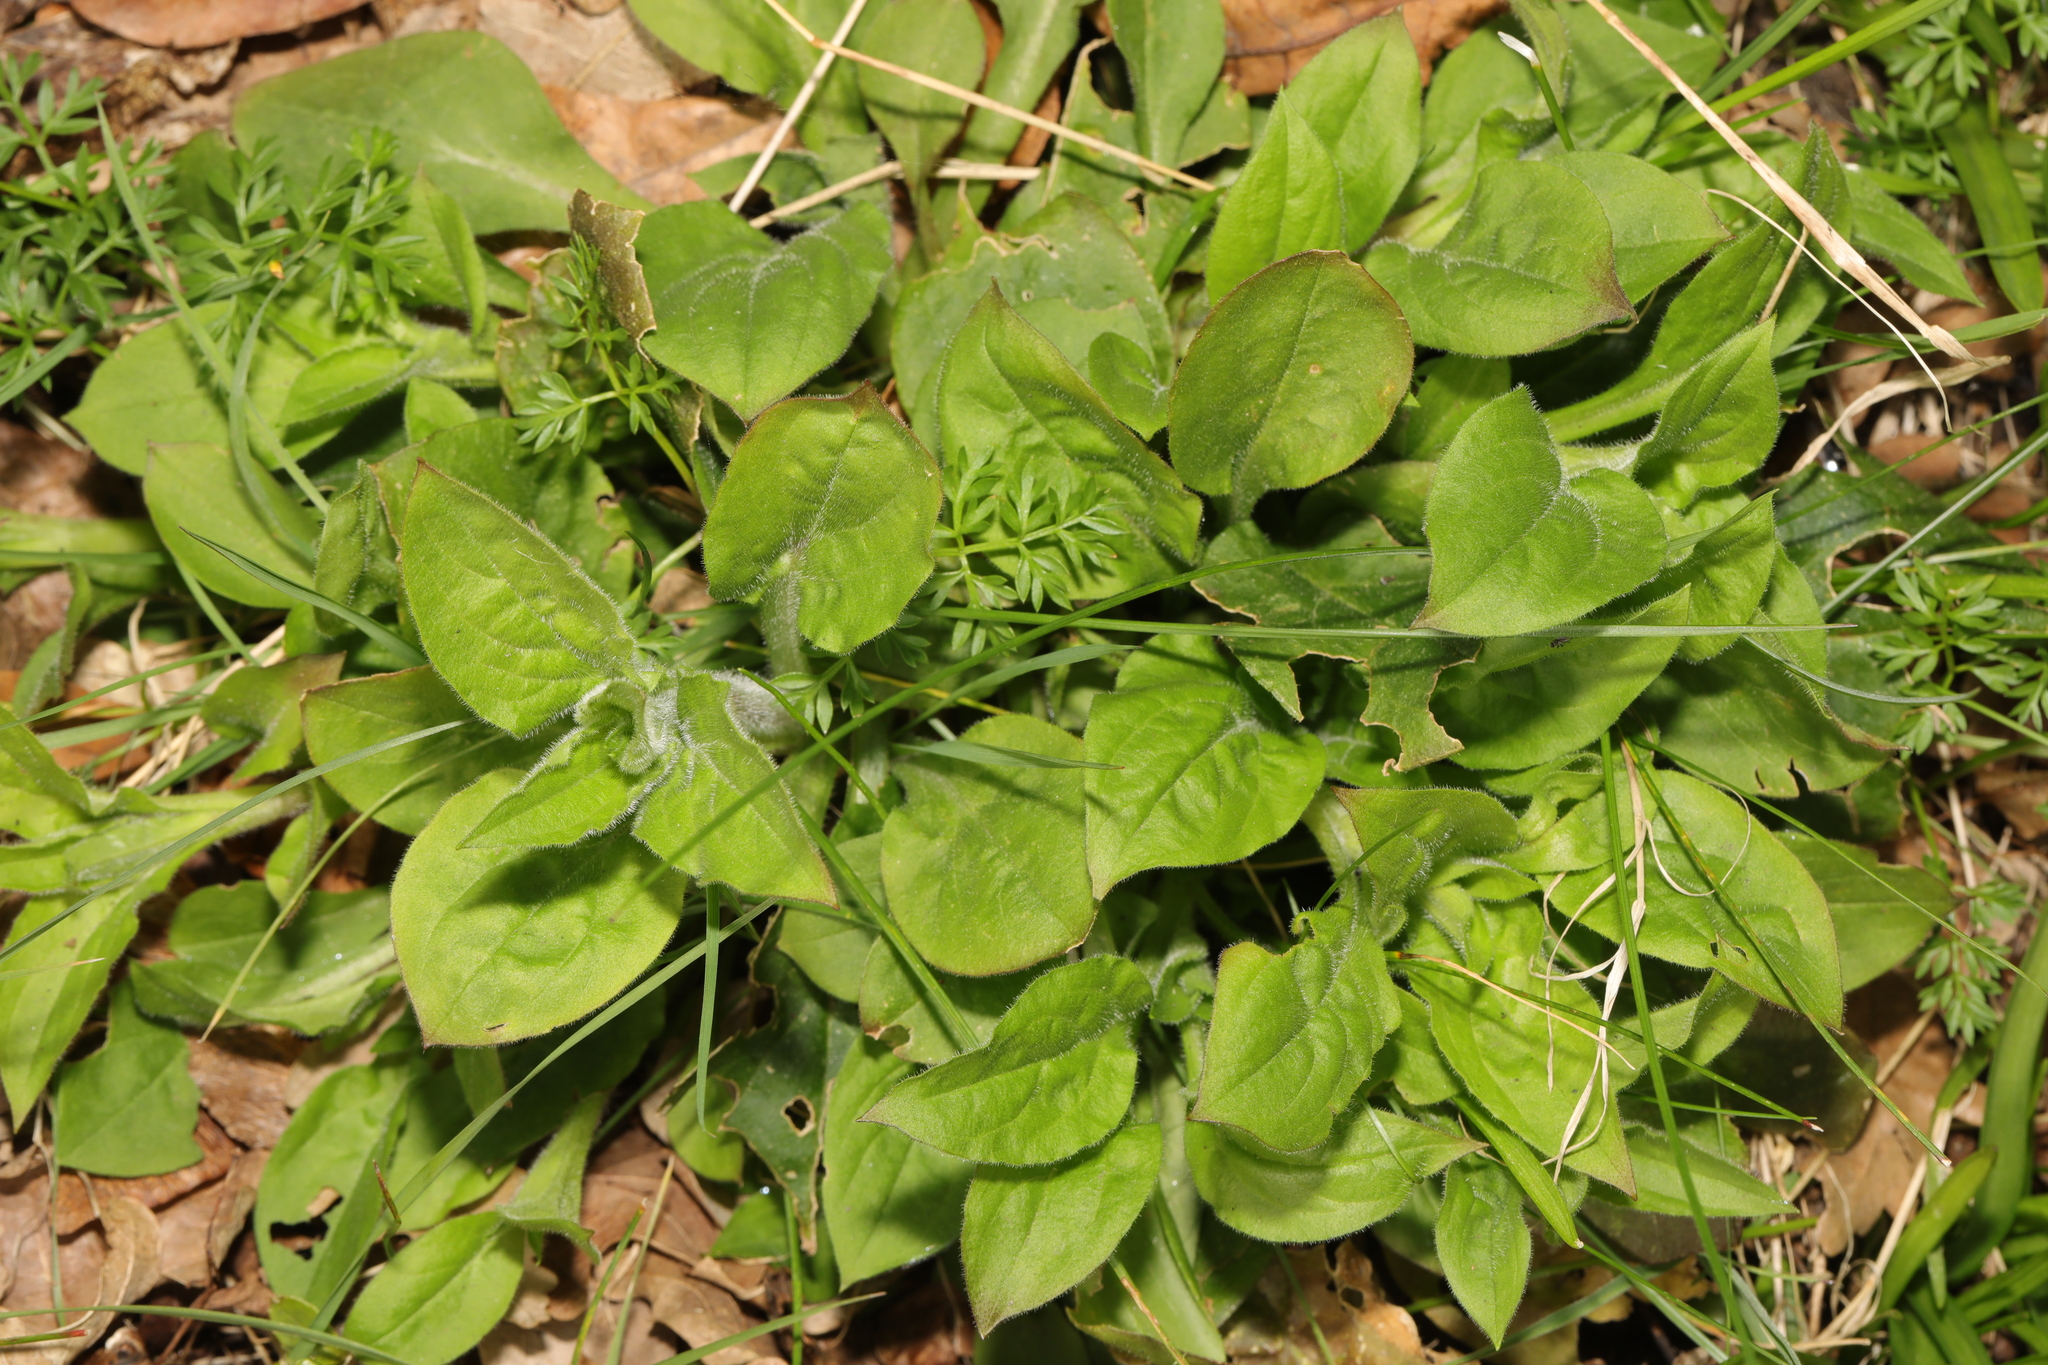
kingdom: Plantae
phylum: Tracheophyta
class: Magnoliopsida
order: Caryophyllales
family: Caryophyllaceae
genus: Silene
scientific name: Silene dioica
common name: Red campion
